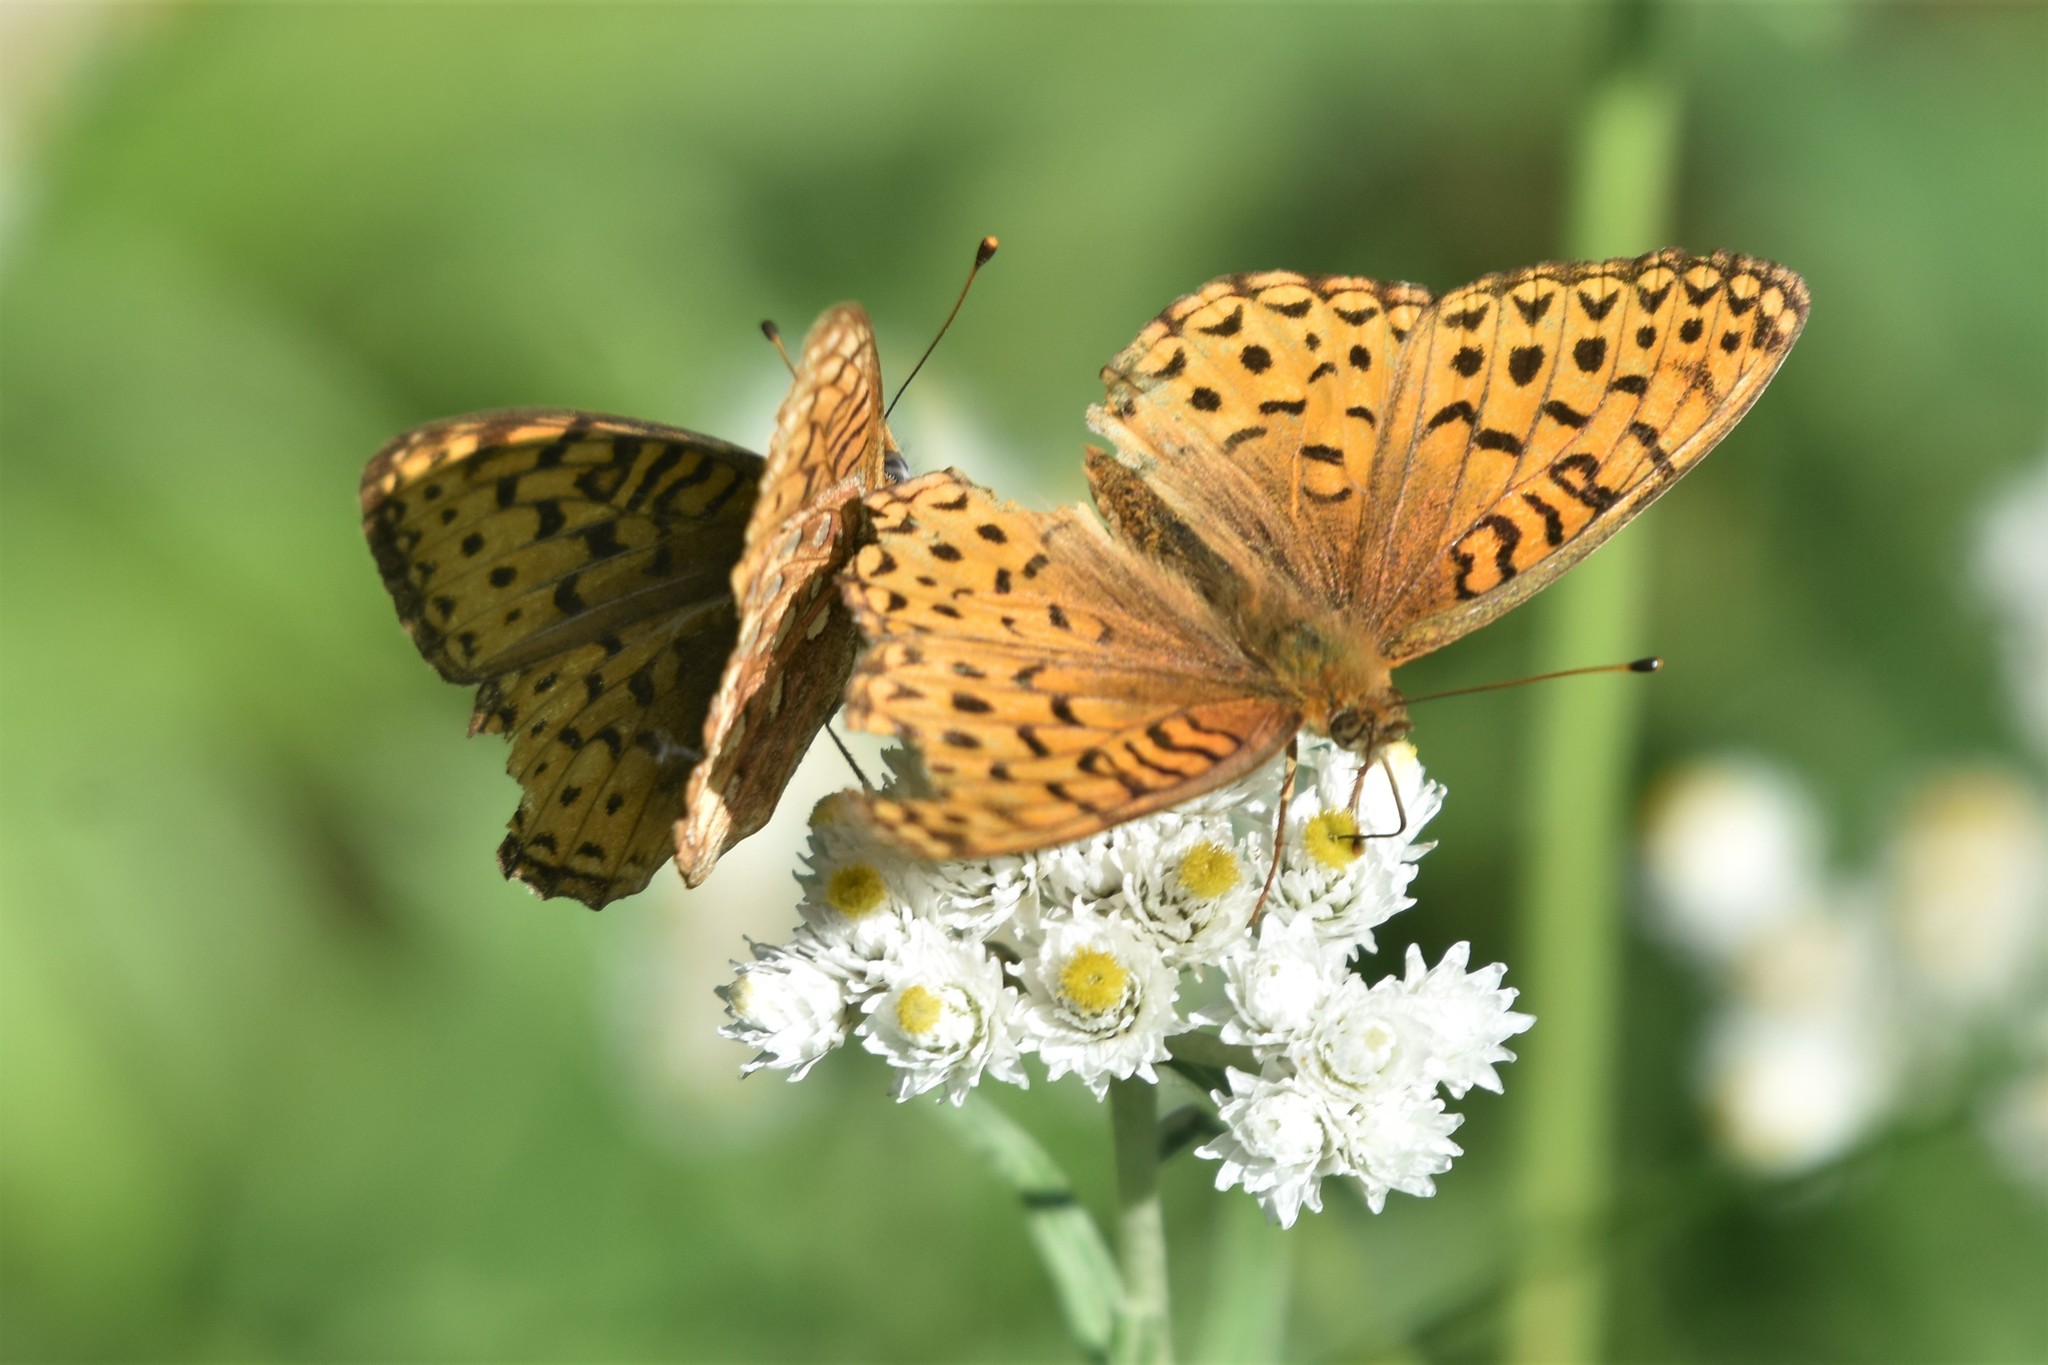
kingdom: Animalia
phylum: Arthropoda
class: Insecta
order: Lepidoptera
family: Nymphalidae
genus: Speyeria
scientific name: Speyeria atlantis
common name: Atlantis fritillary
